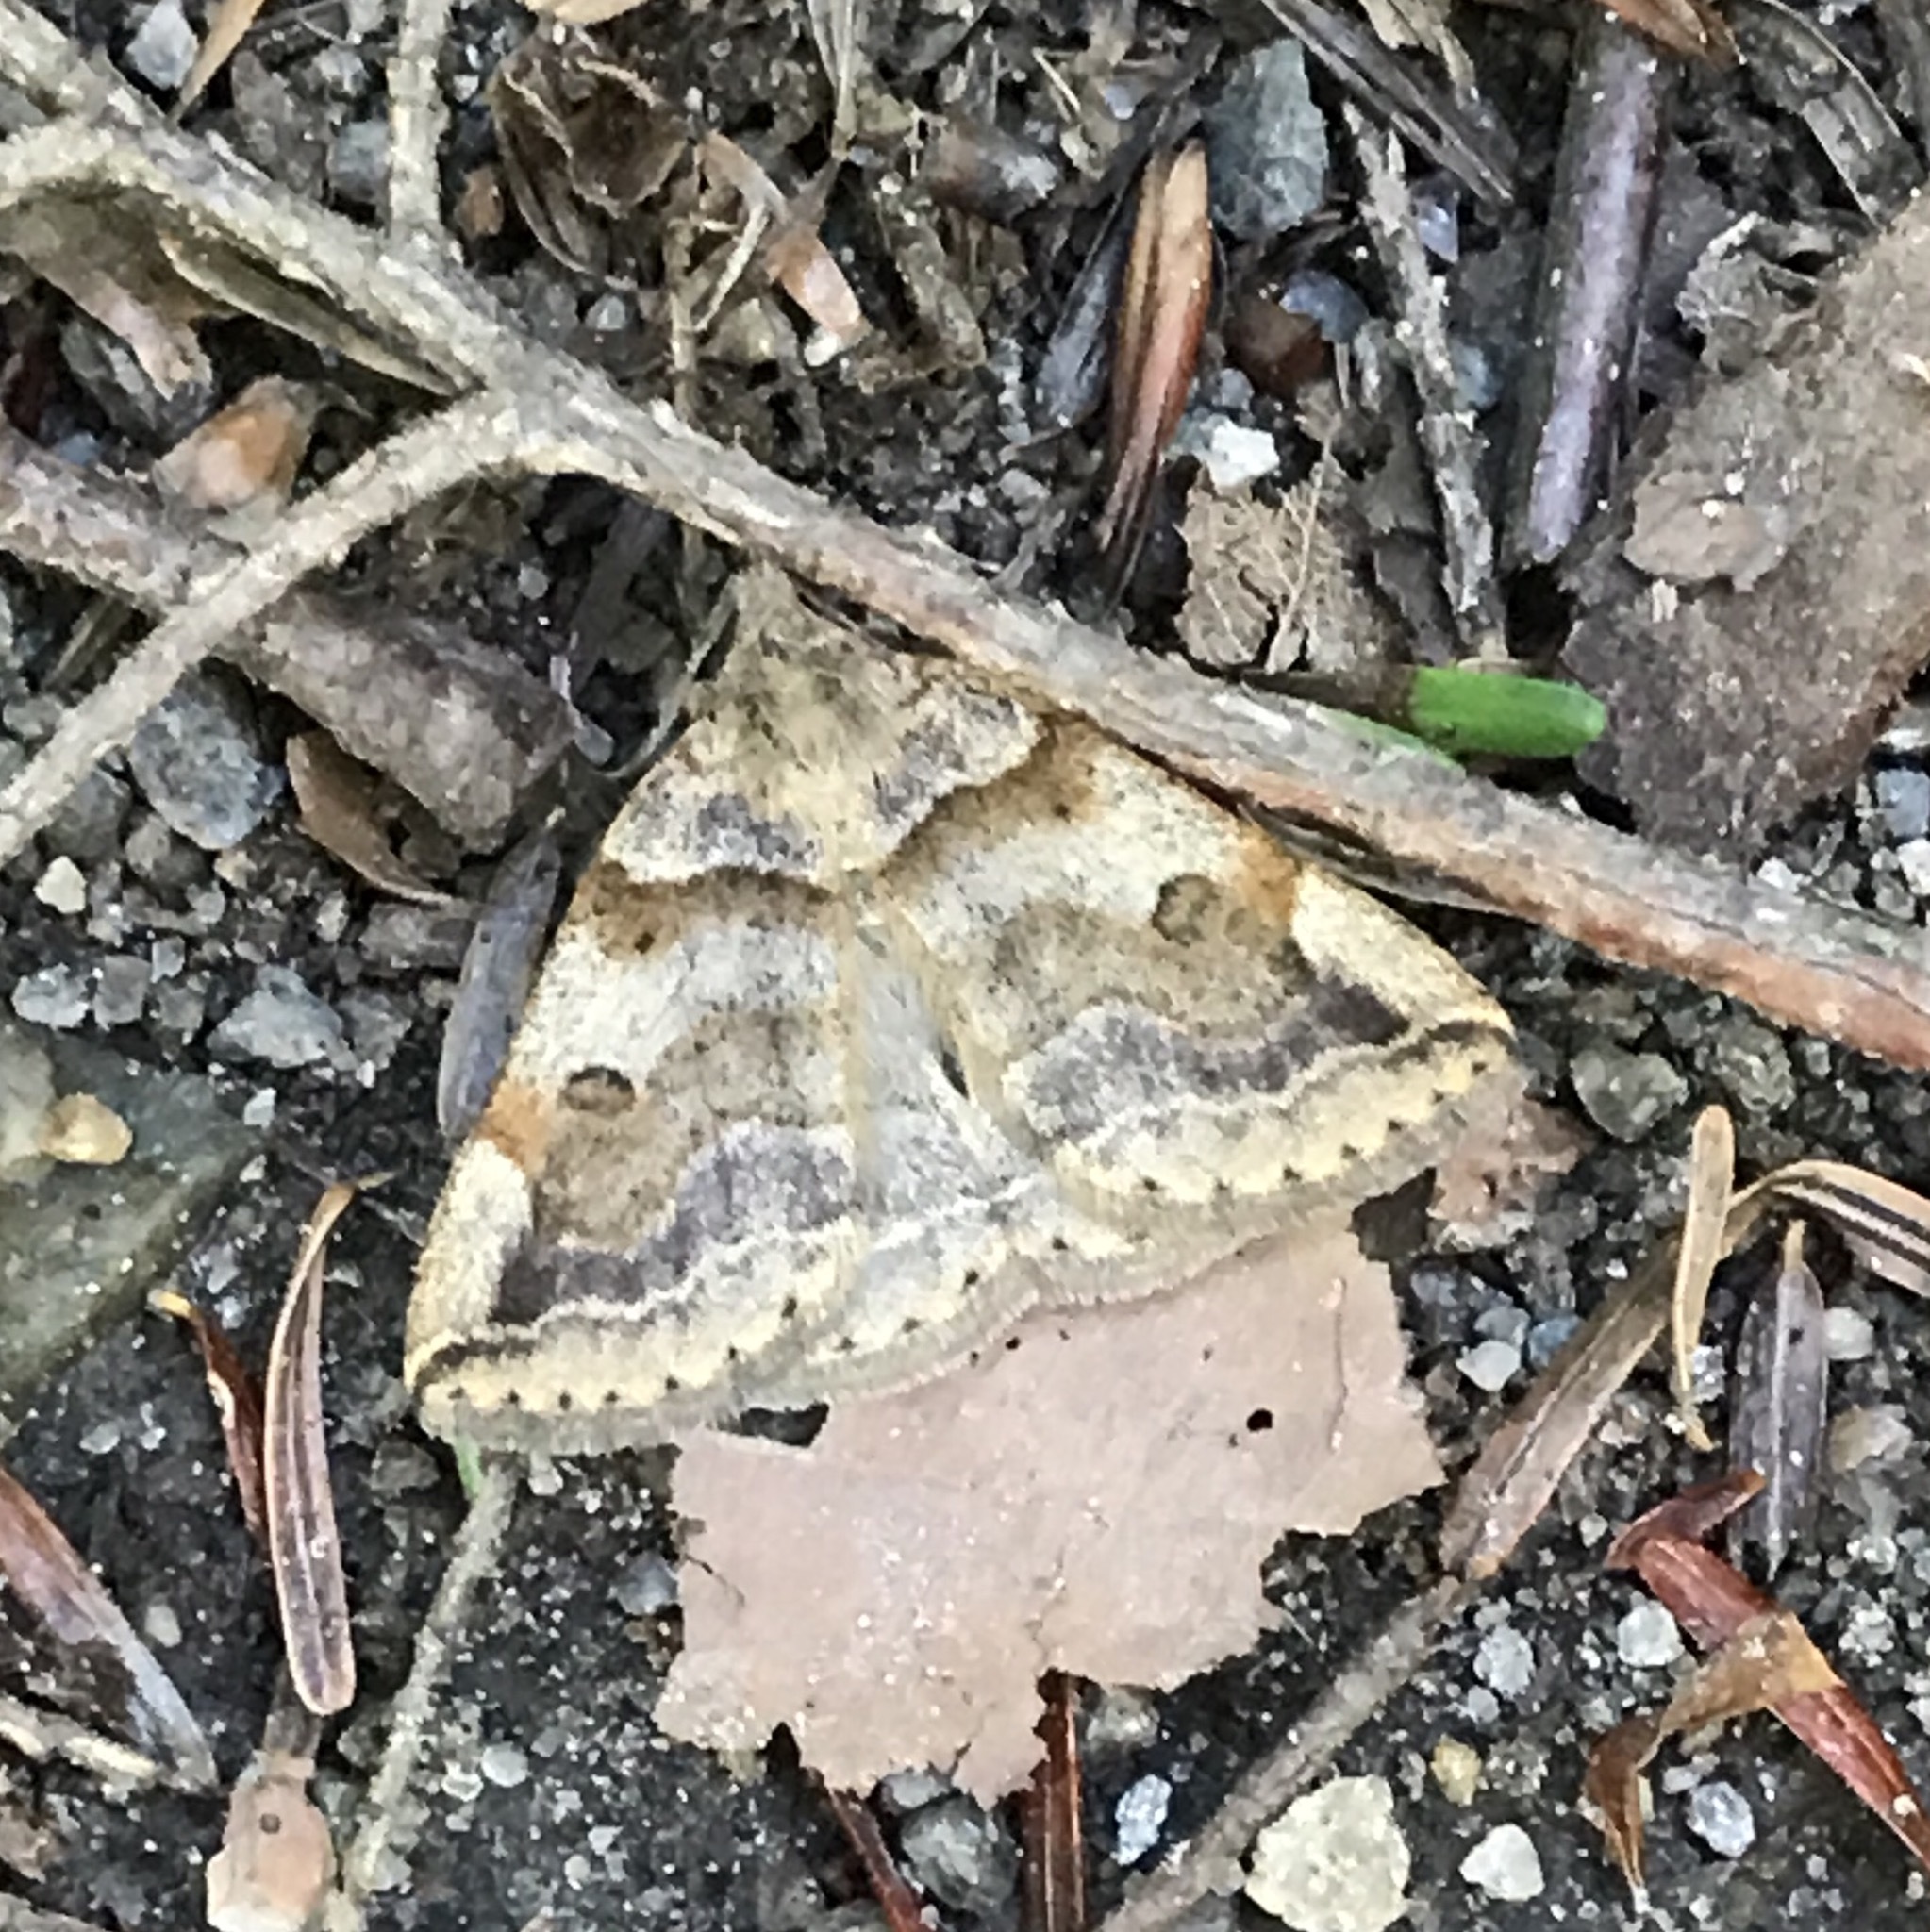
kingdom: Animalia
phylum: Arthropoda
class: Insecta
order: Lepidoptera
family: Erebidae
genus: Zanclognatha
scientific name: Zanclognatha laevigata
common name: Variable fan-foot
